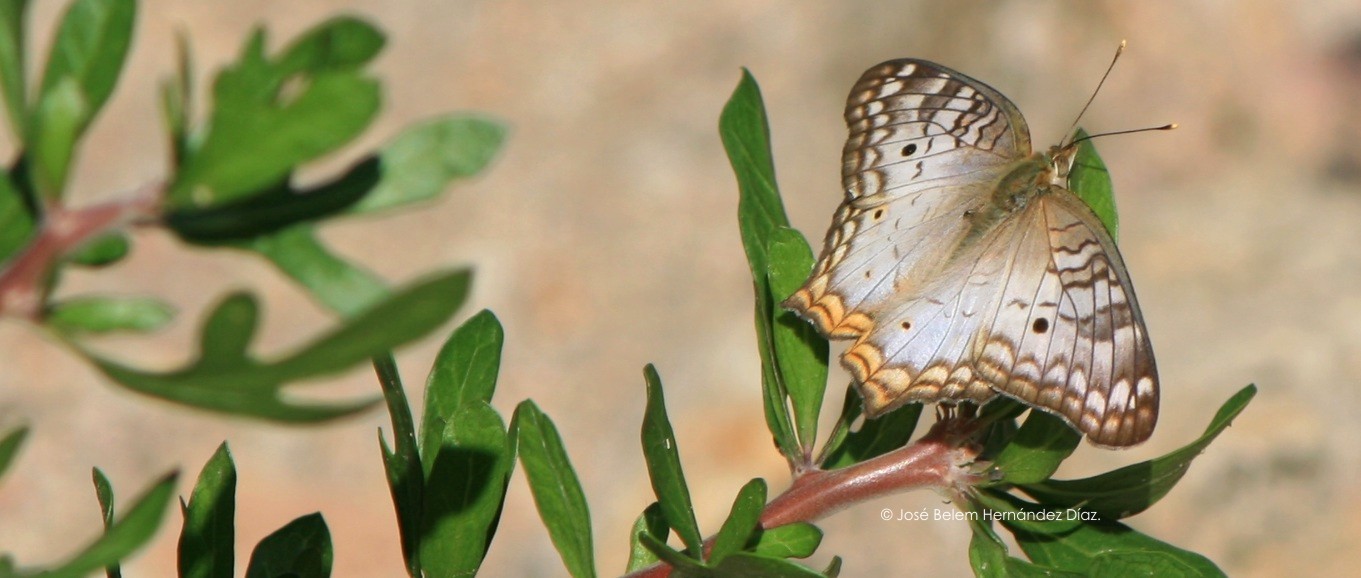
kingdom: Animalia
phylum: Arthropoda
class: Insecta
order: Lepidoptera
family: Nymphalidae
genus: Anartia
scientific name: Anartia jatrophae
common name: White peacock
